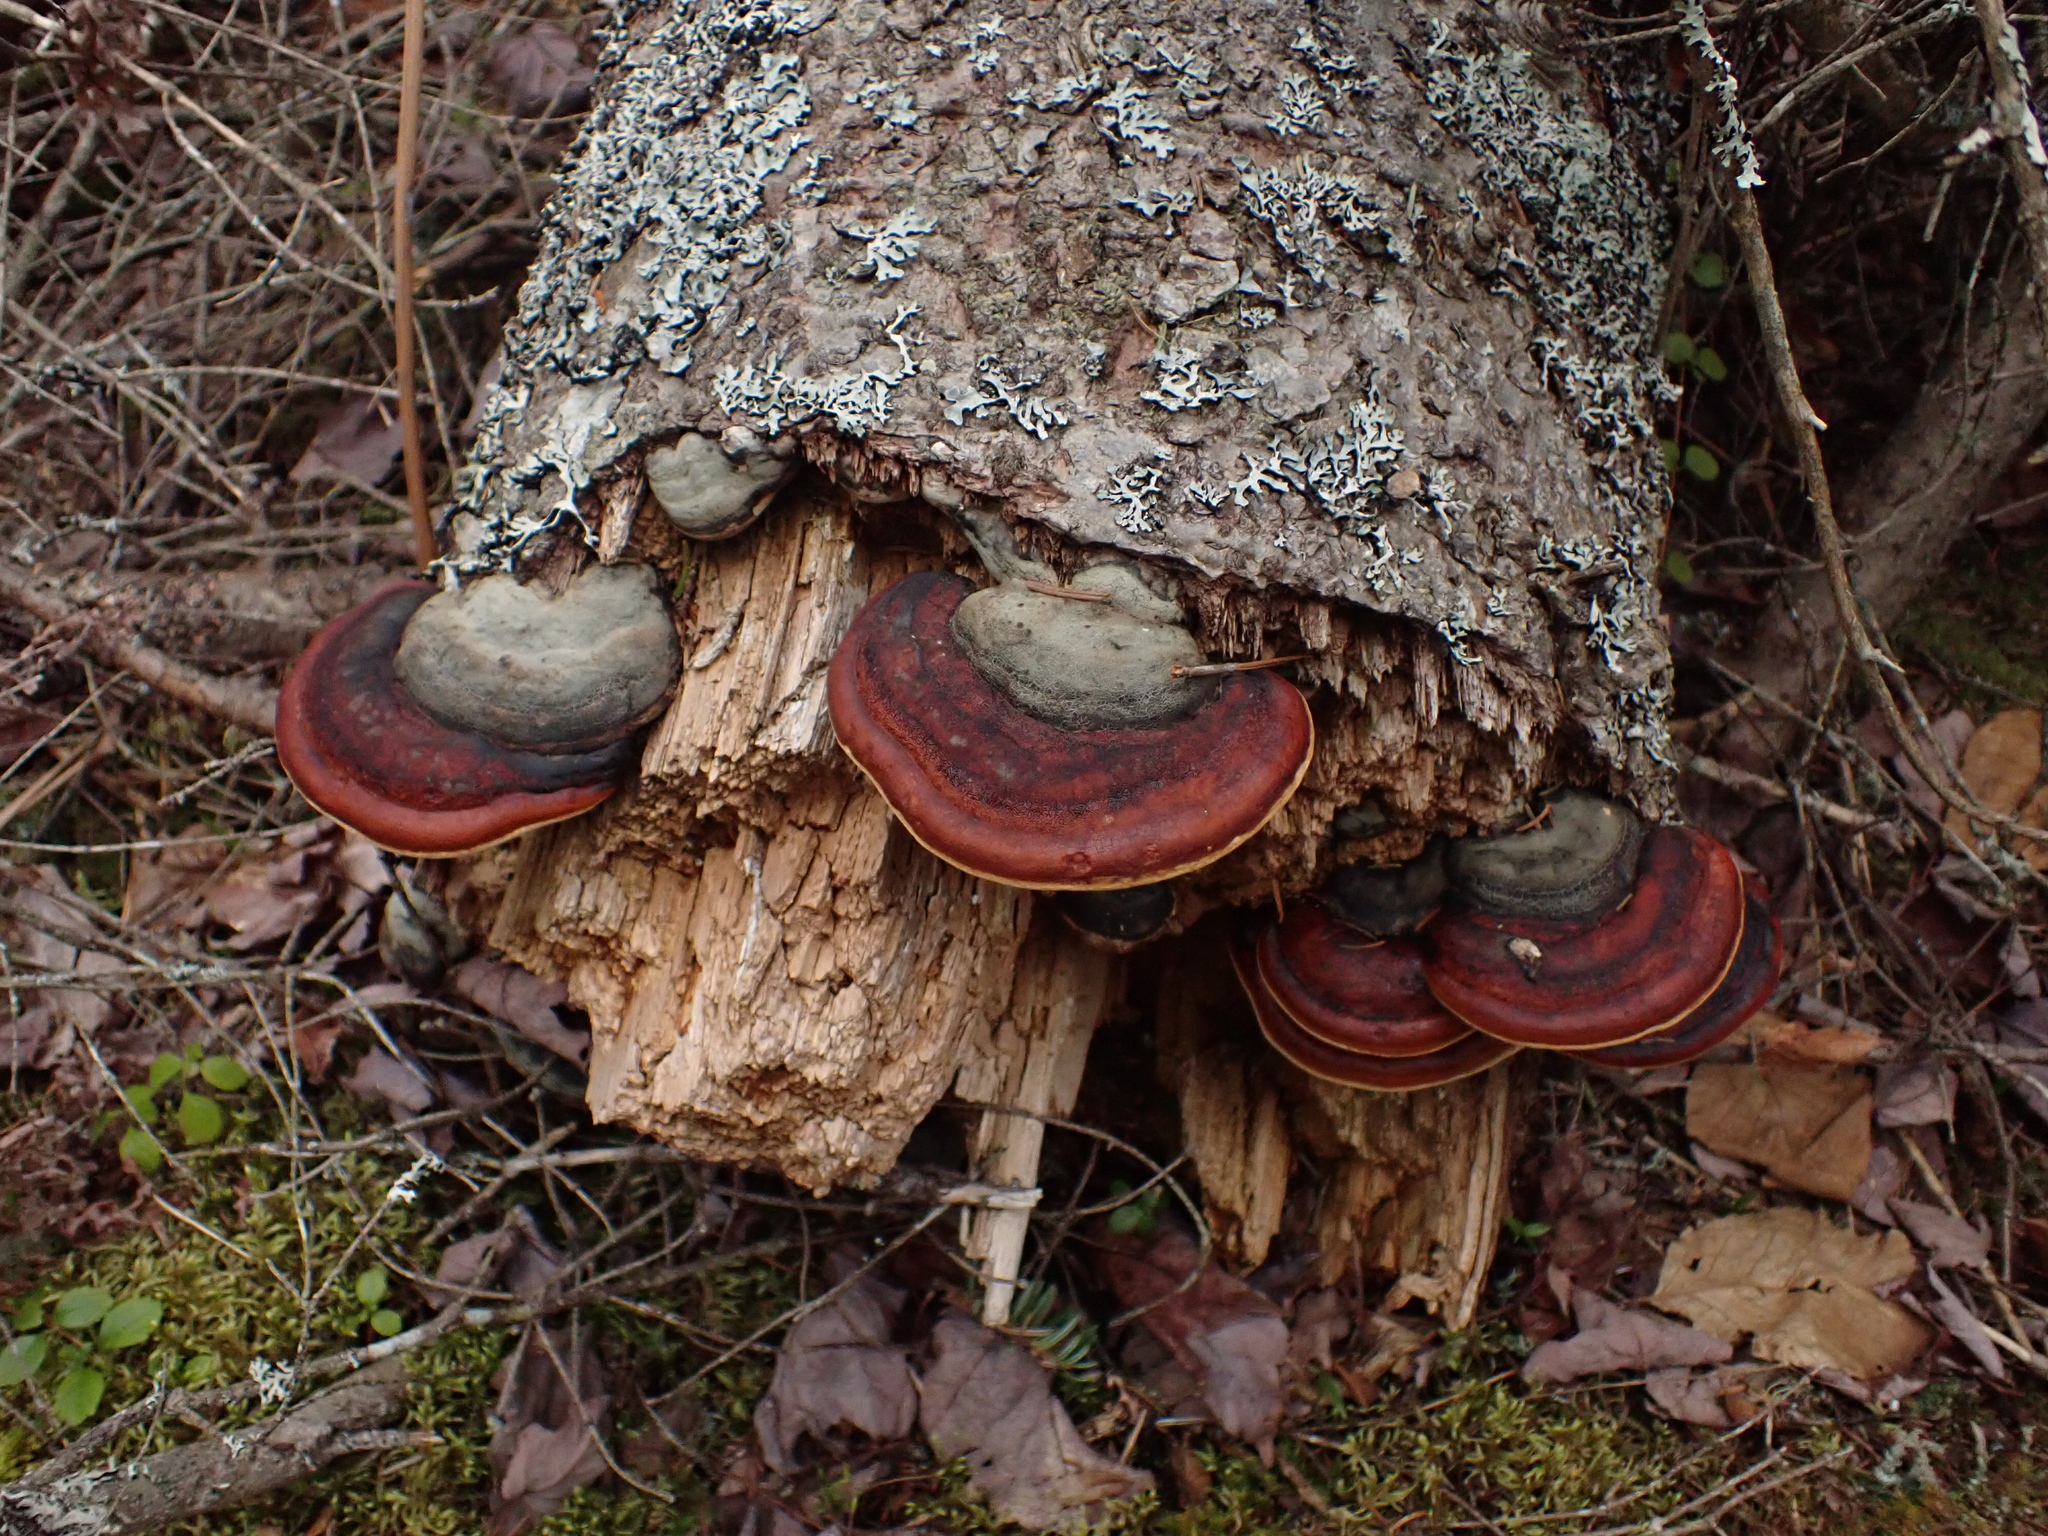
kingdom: Fungi
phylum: Basidiomycota
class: Agaricomycetes
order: Polyporales
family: Fomitopsidaceae
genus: Fomitopsis
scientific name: Fomitopsis mounceae
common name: Northern red belt
